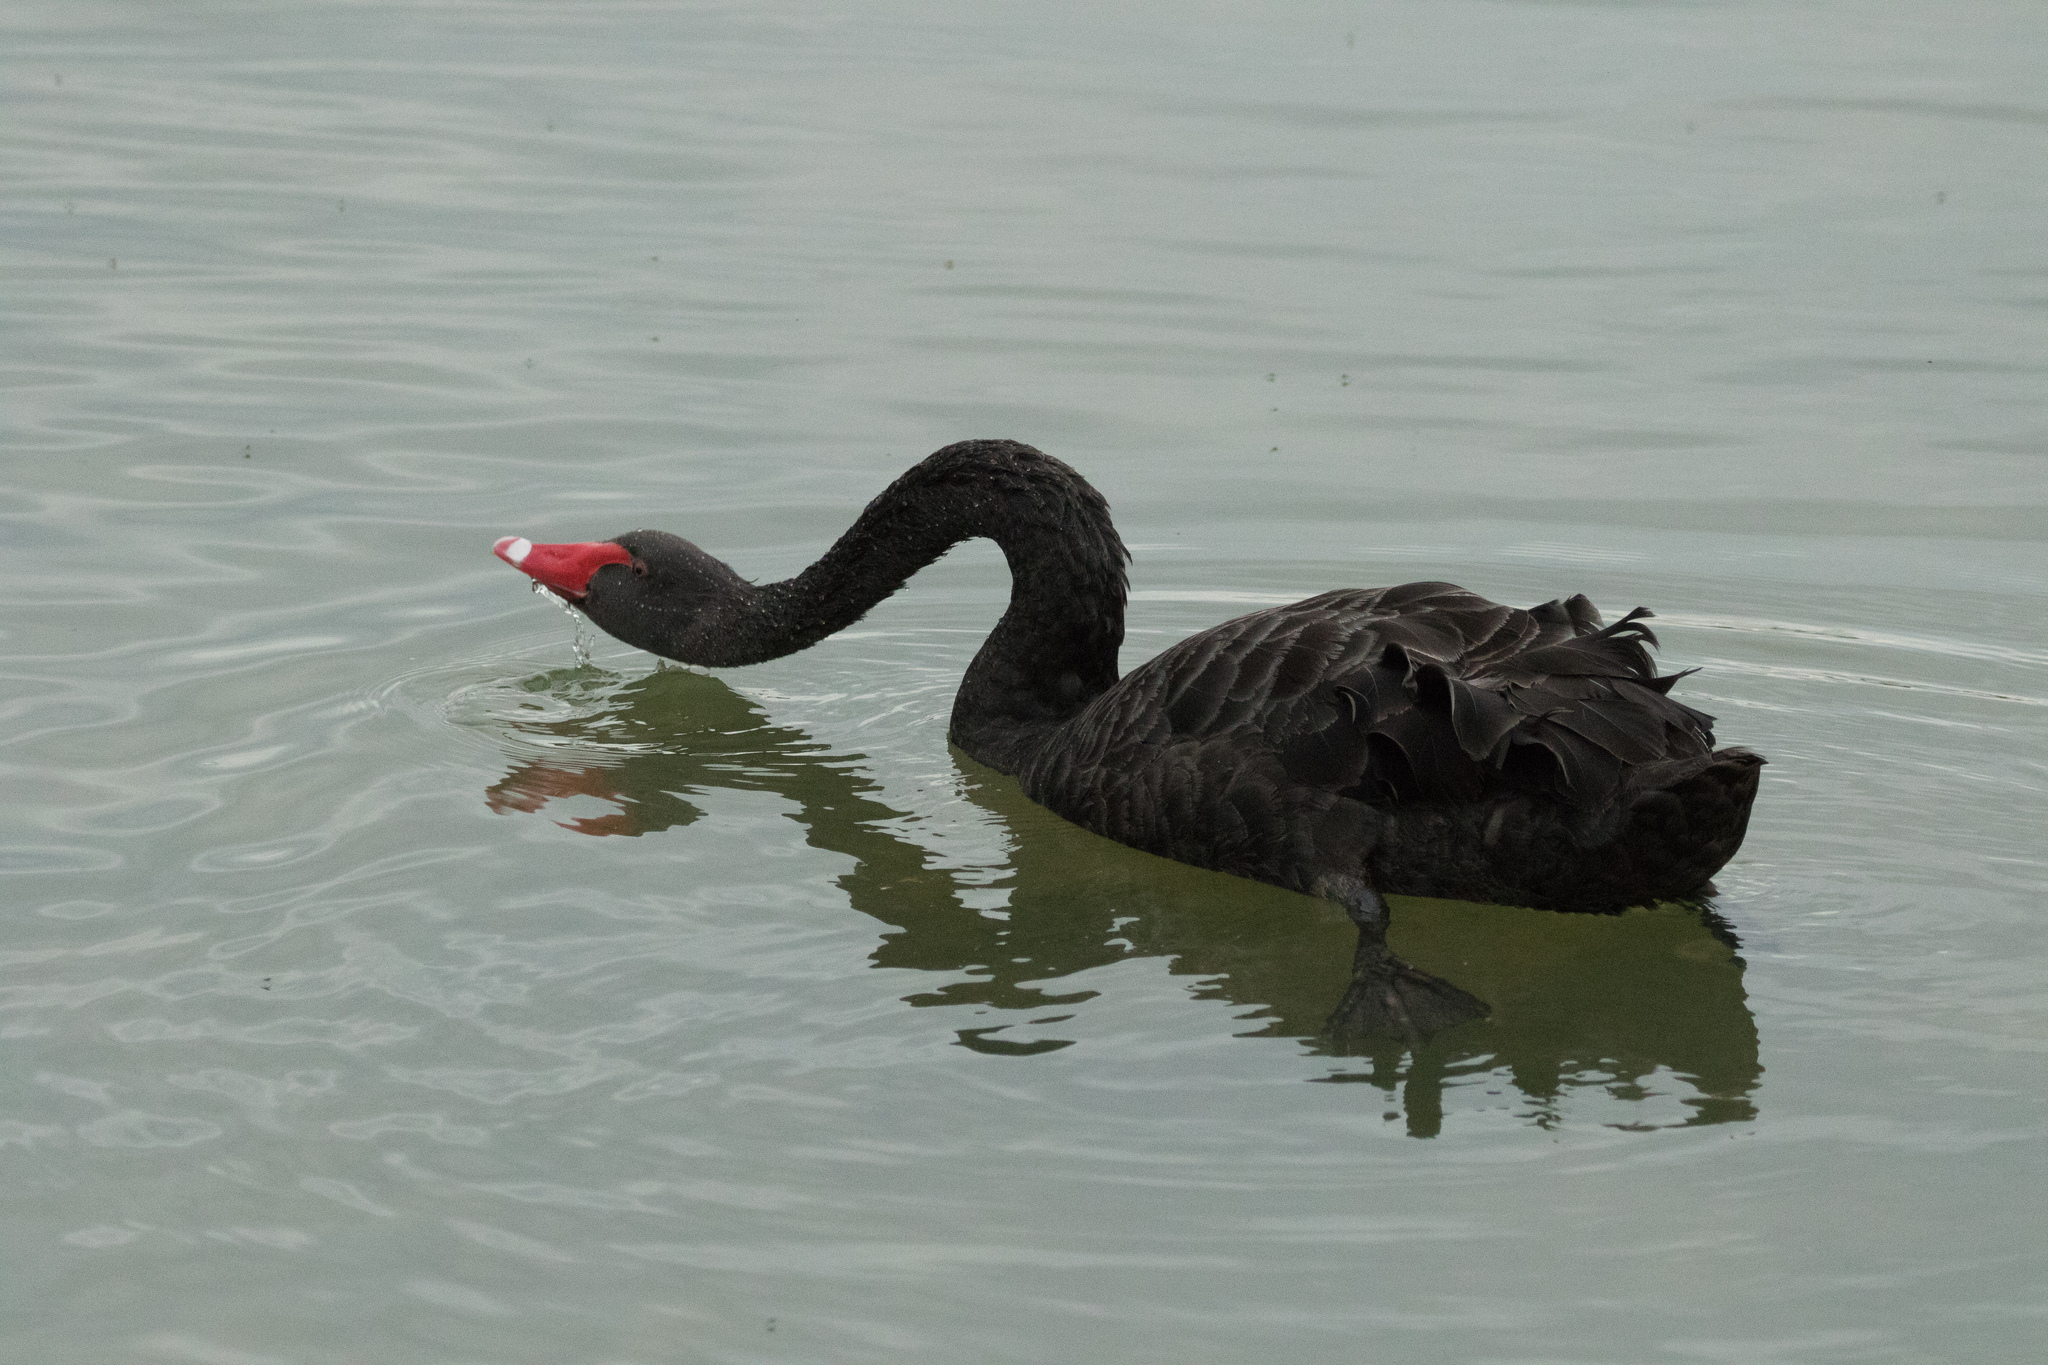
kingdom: Animalia
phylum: Chordata
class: Aves
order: Anseriformes
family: Anatidae
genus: Cygnus
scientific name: Cygnus atratus
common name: Black swan
